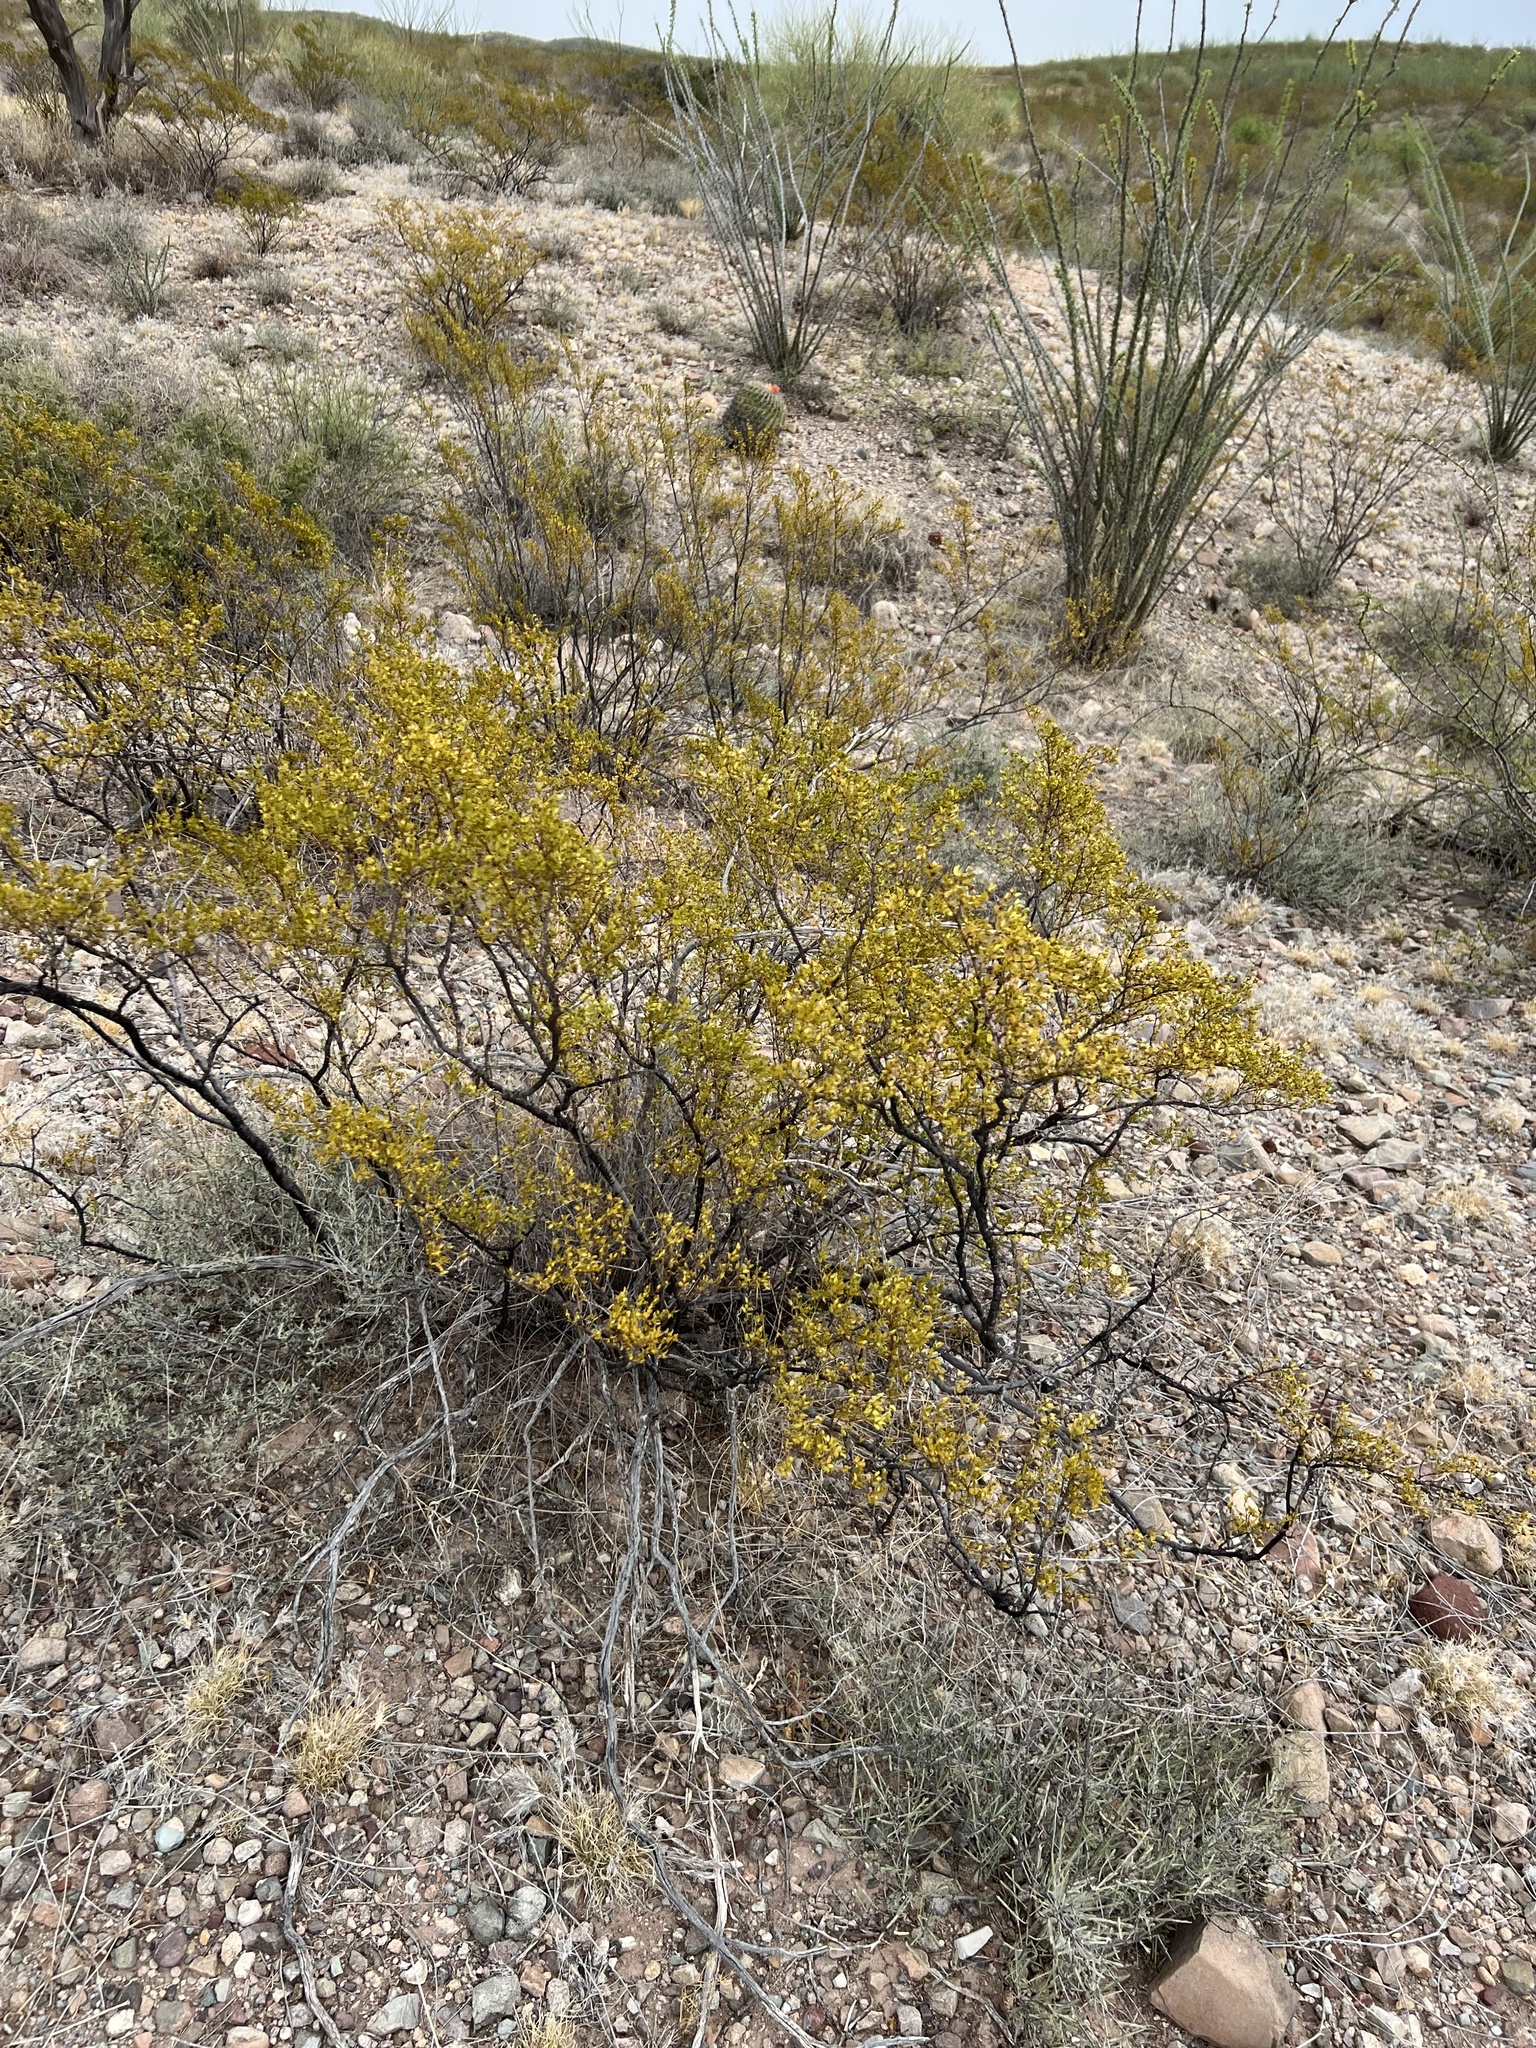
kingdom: Plantae
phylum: Tracheophyta
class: Magnoliopsida
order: Zygophyllales
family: Zygophyllaceae
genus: Larrea
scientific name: Larrea tridentata
